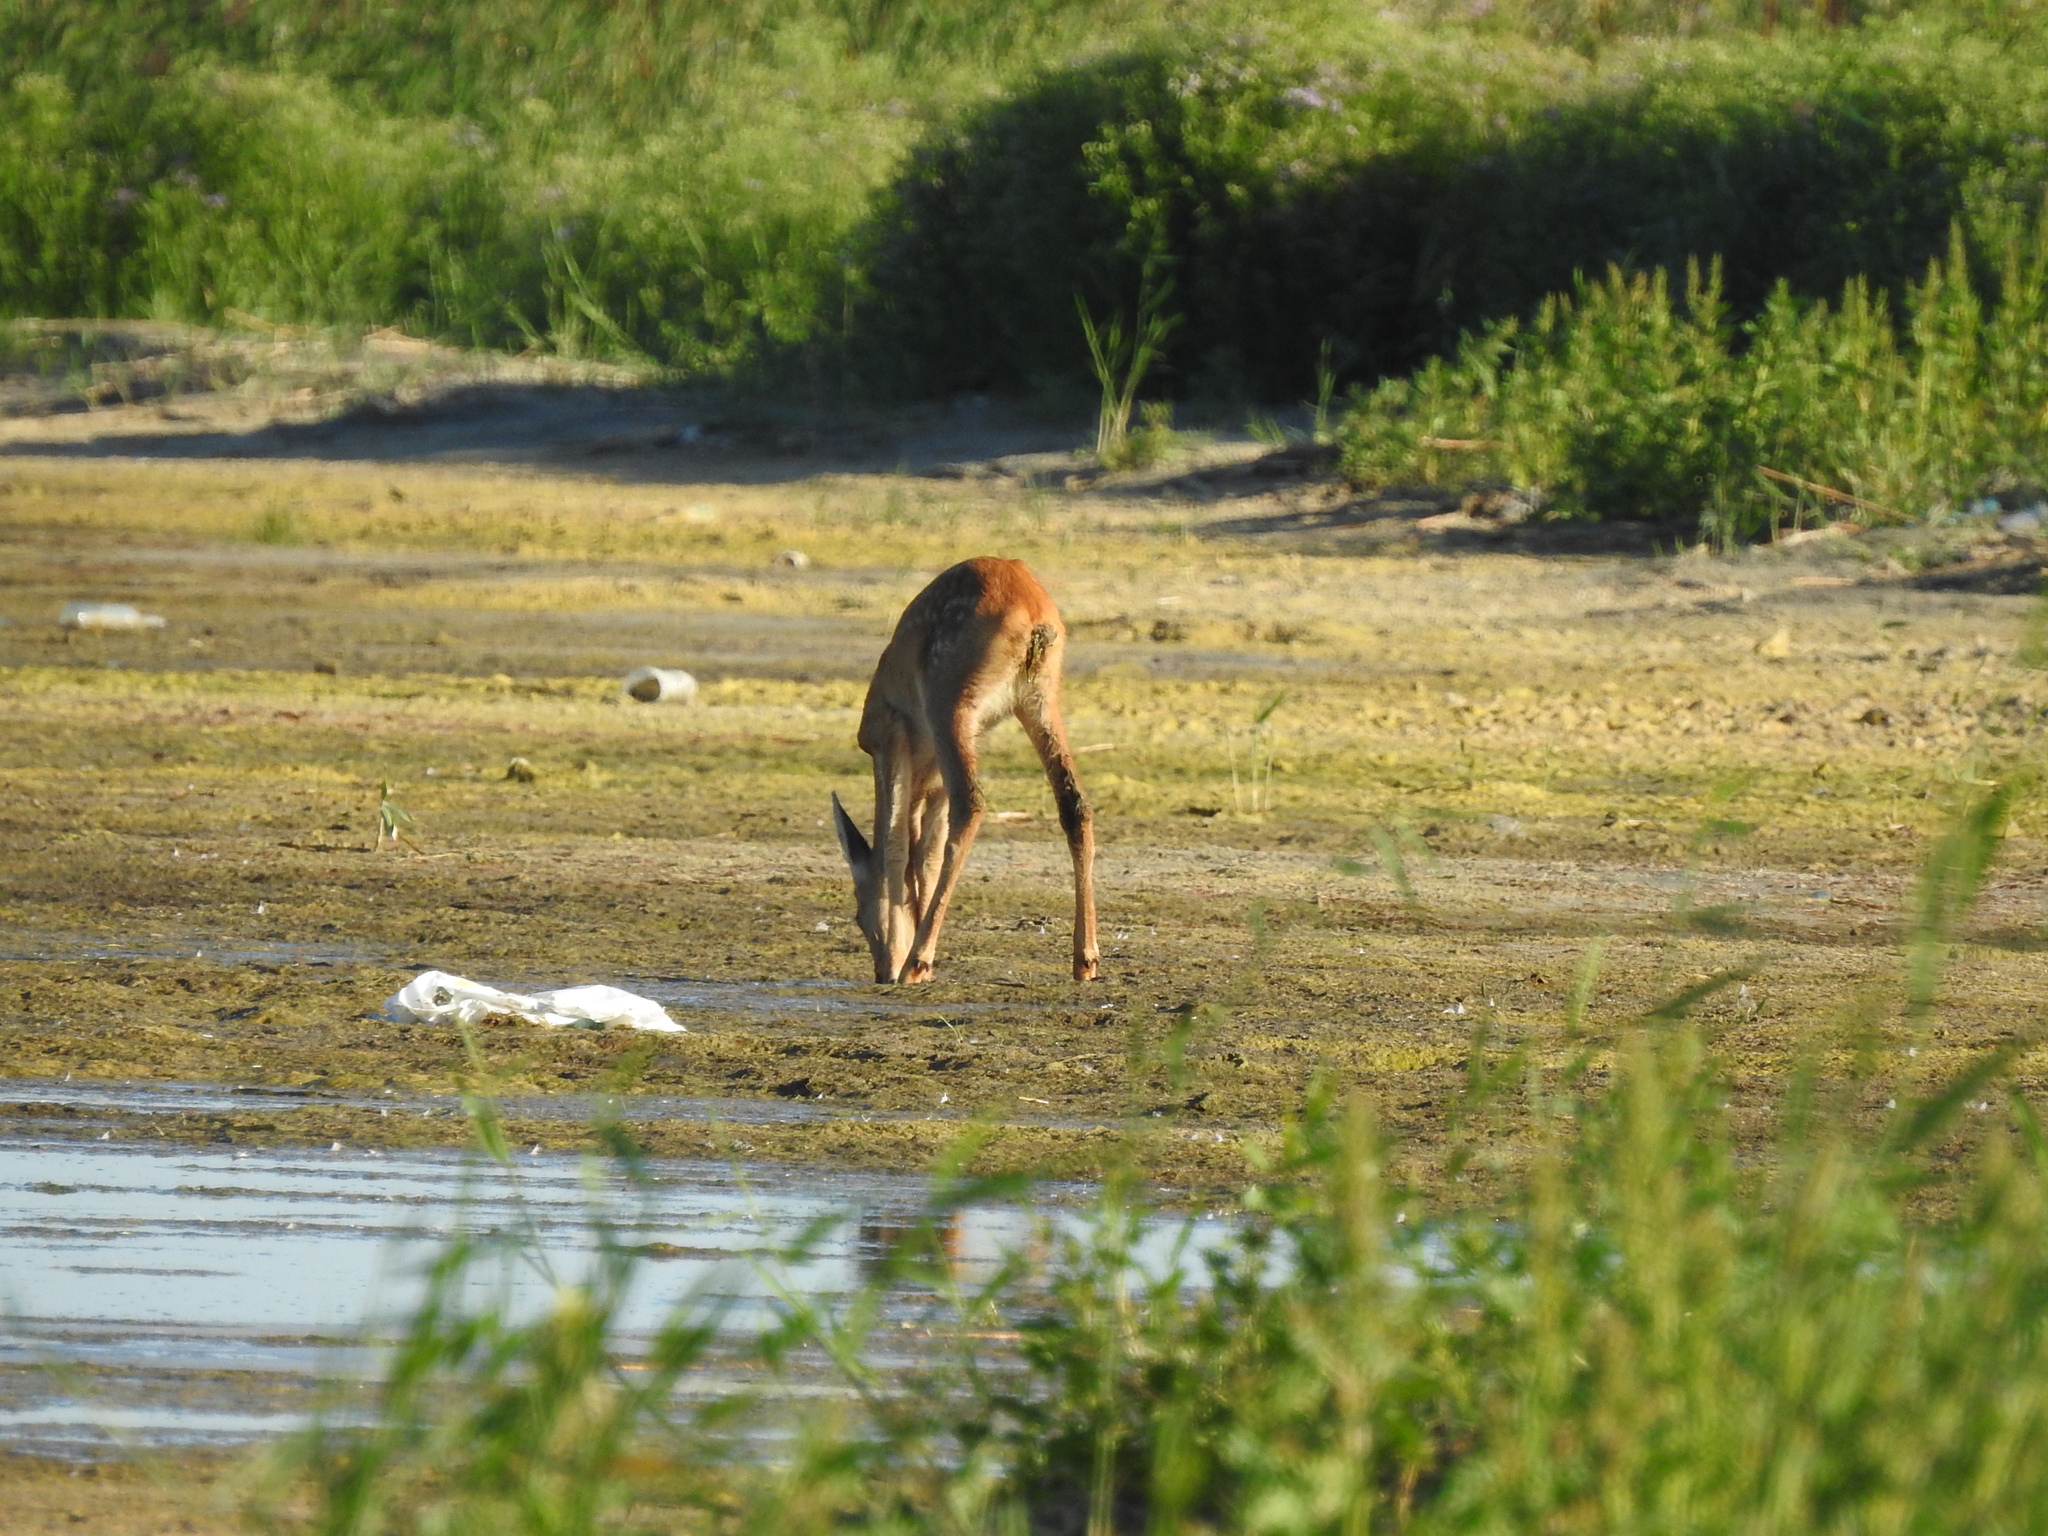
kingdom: Animalia
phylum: Chordata
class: Mammalia
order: Artiodactyla
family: Cervidae
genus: Capreolus
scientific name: Capreolus pygargus
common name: Siberian roe
